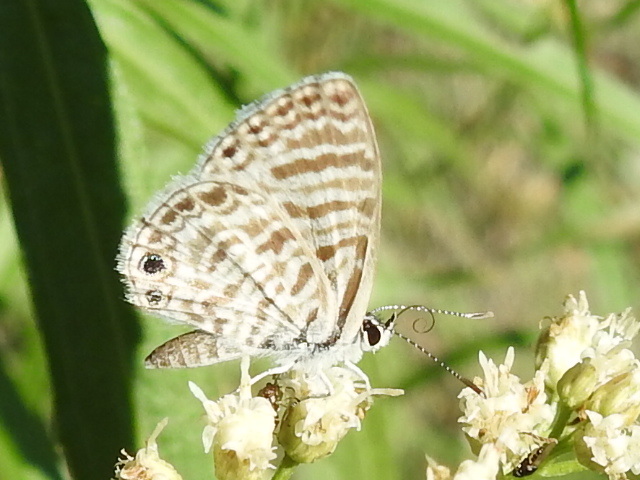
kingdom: Animalia
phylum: Arthropoda
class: Insecta
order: Lepidoptera
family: Lycaenidae
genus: Leptotes
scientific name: Leptotes marina
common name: Marine blue
